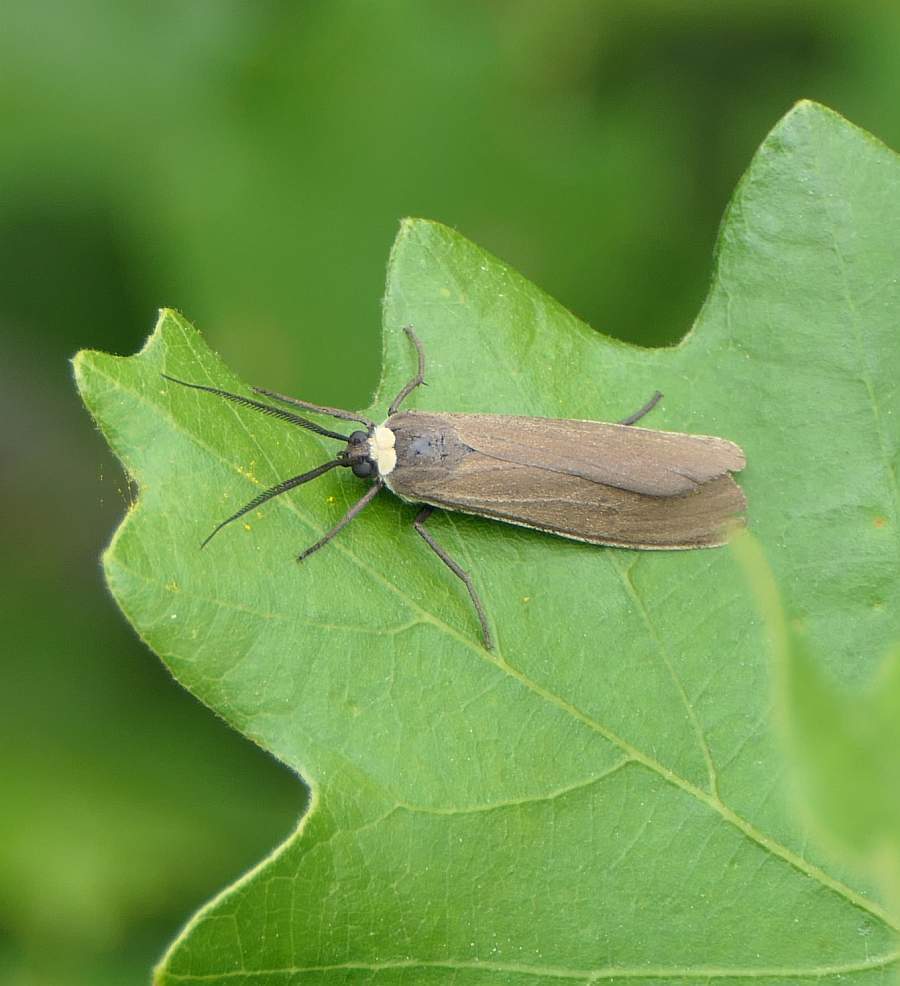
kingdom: Animalia
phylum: Arthropoda
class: Insecta
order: Lepidoptera
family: Erebidae
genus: Cisseps
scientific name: Cisseps fulvicollis
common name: Yellow-collared scape moth
